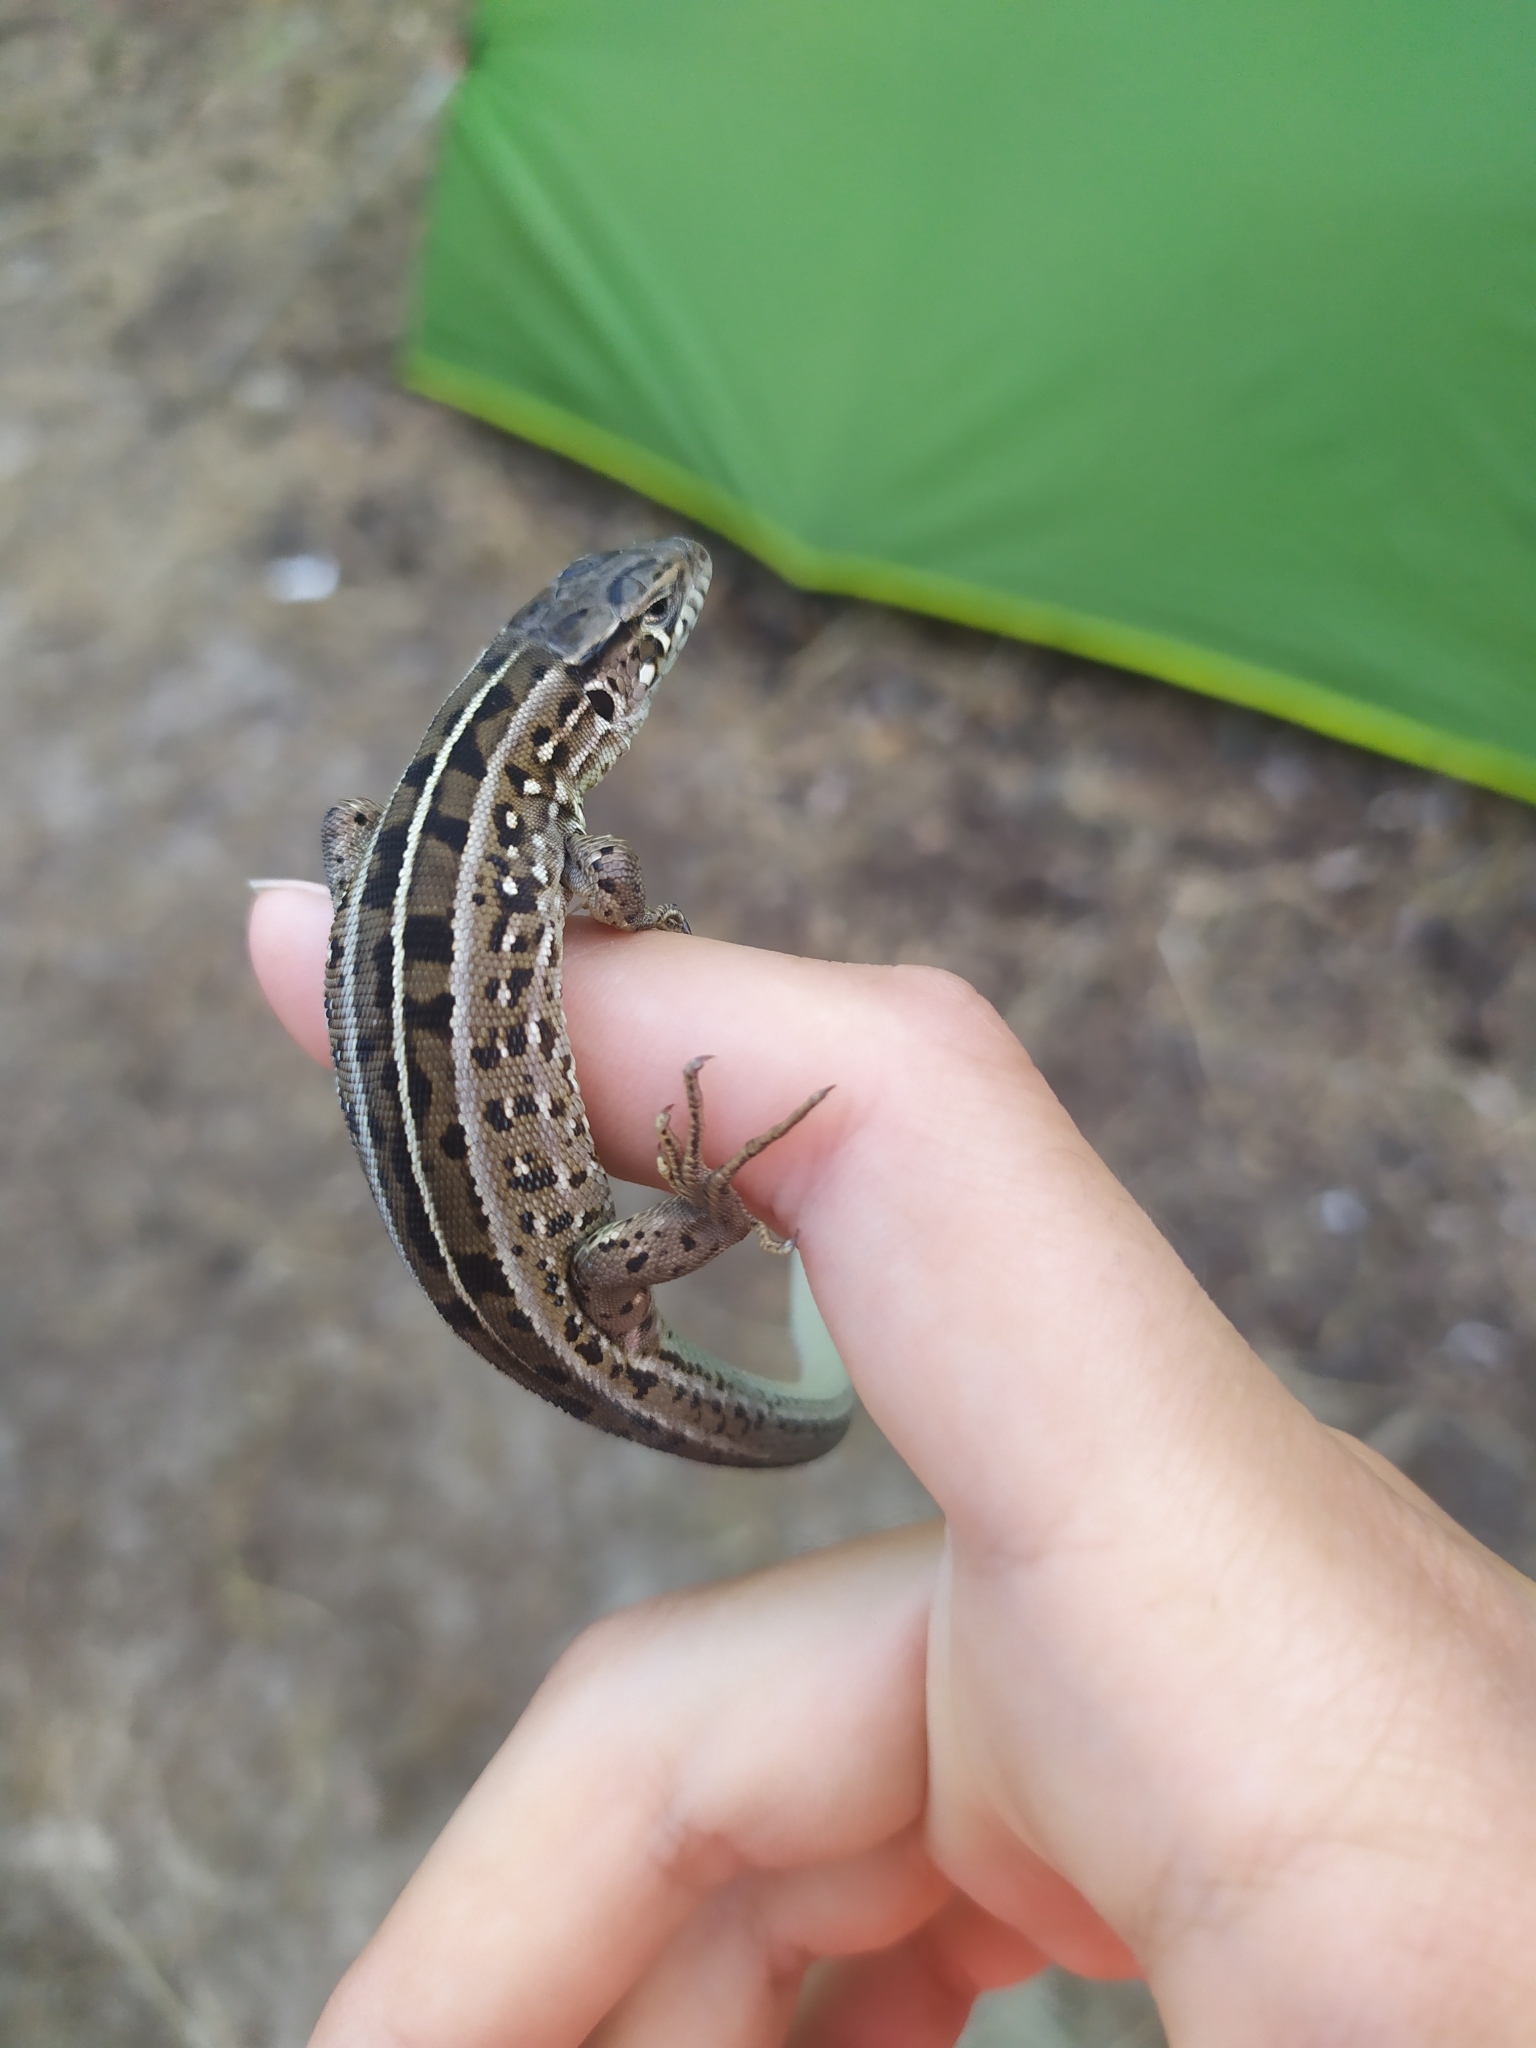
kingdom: Animalia
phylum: Chordata
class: Squamata
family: Lacertidae
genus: Lacerta
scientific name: Lacerta agilis
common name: Sand lizard
